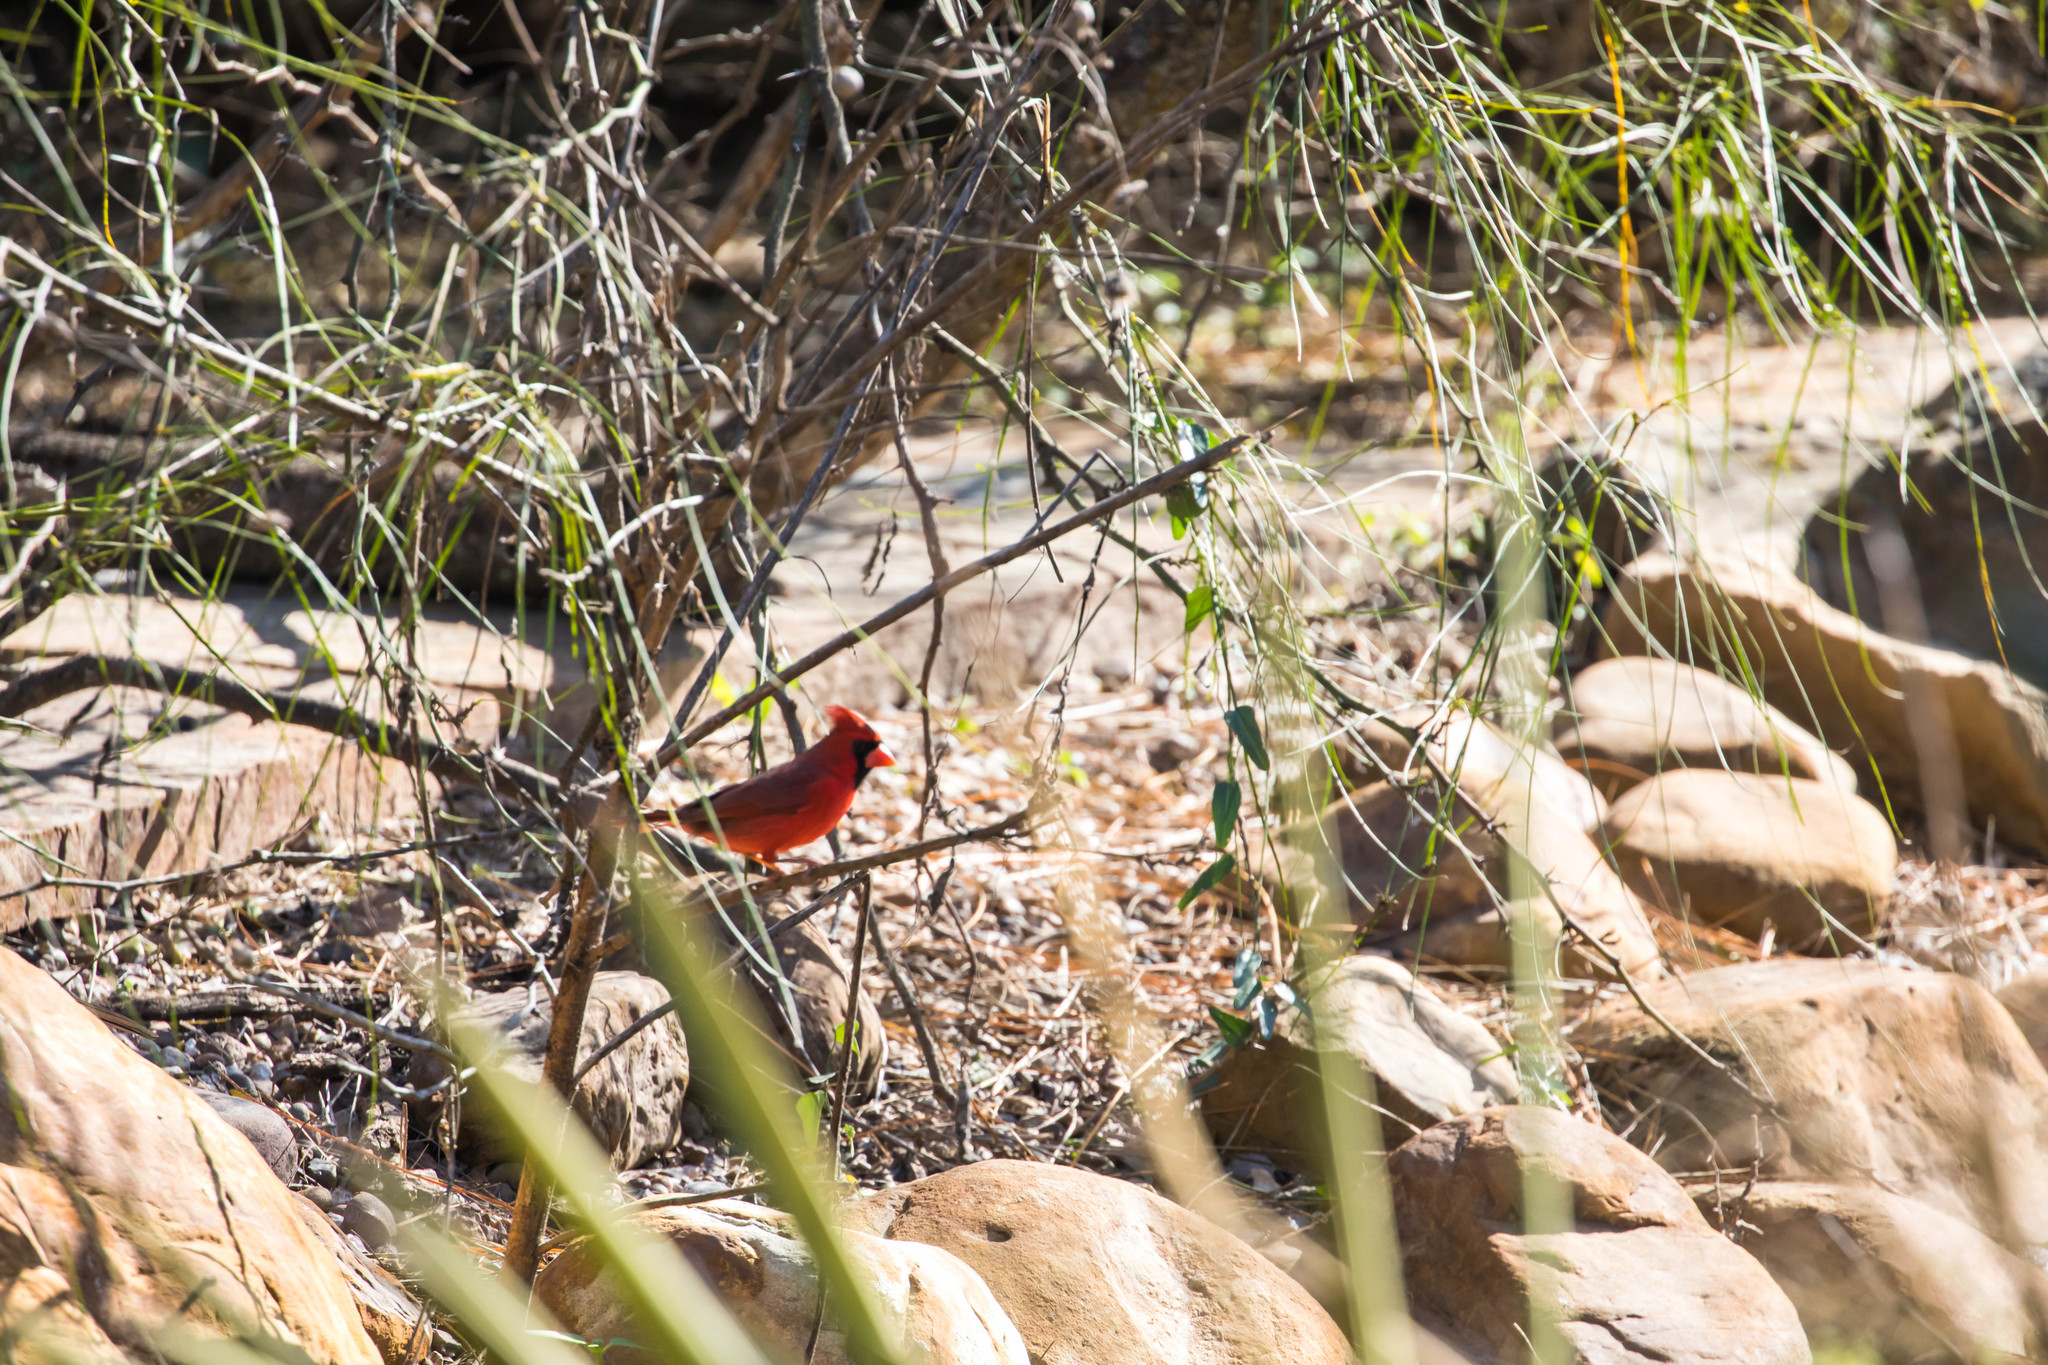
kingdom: Animalia
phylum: Chordata
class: Aves
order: Passeriformes
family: Cardinalidae
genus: Cardinalis
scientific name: Cardinalis cardinalis
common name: Northern cardinal
